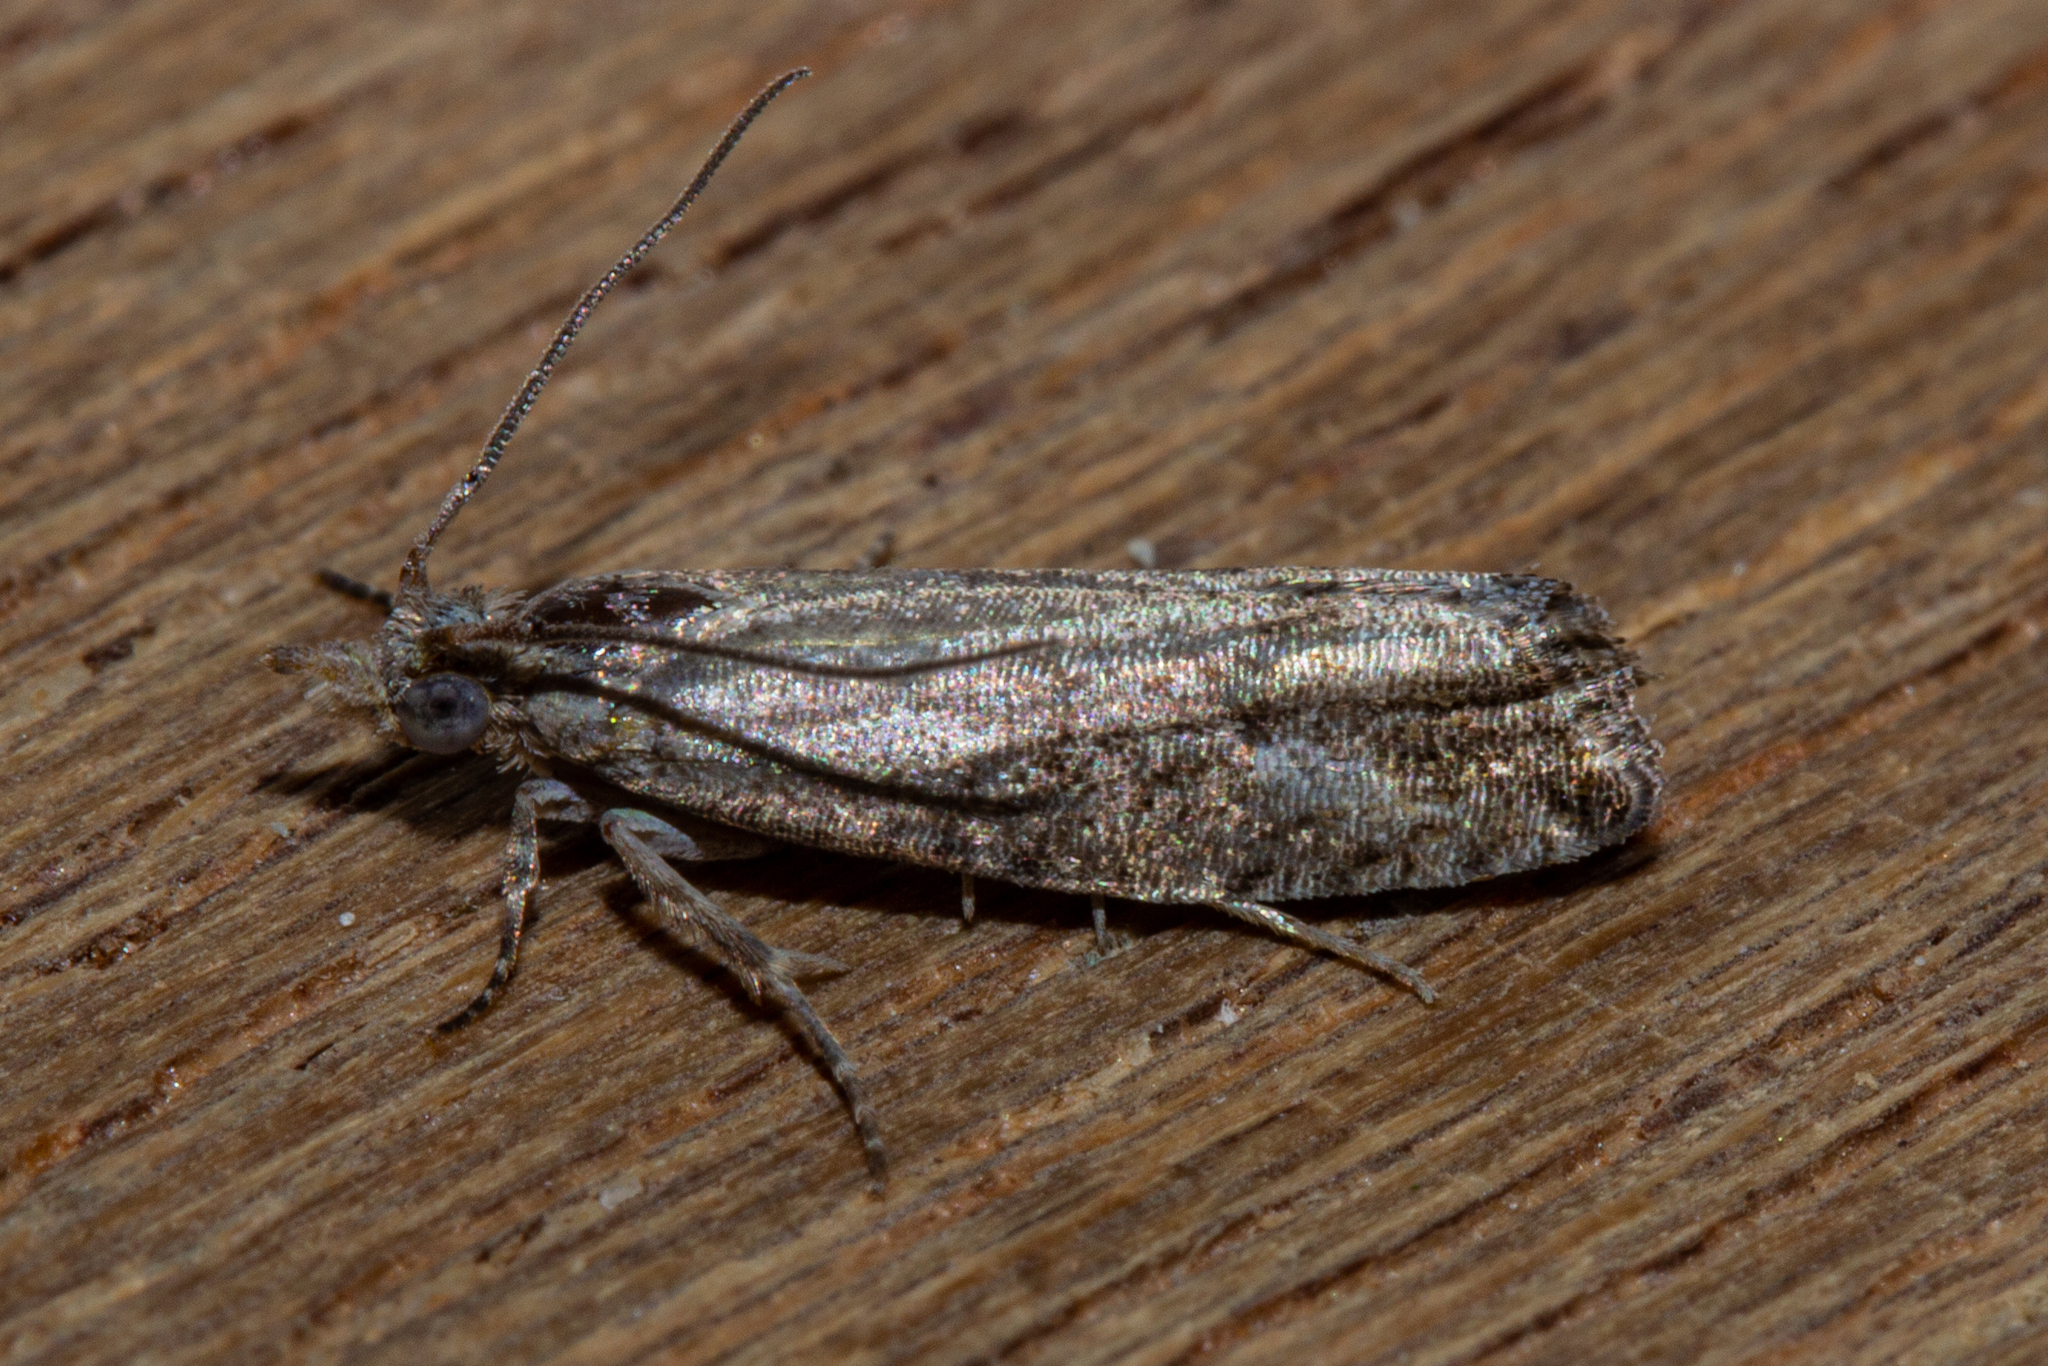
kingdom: Animalia
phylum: Arthropoda
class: Insecta
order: Lepidoptera
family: Tortricidae
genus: Strepsicrates
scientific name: Strepsicrates ejectana
